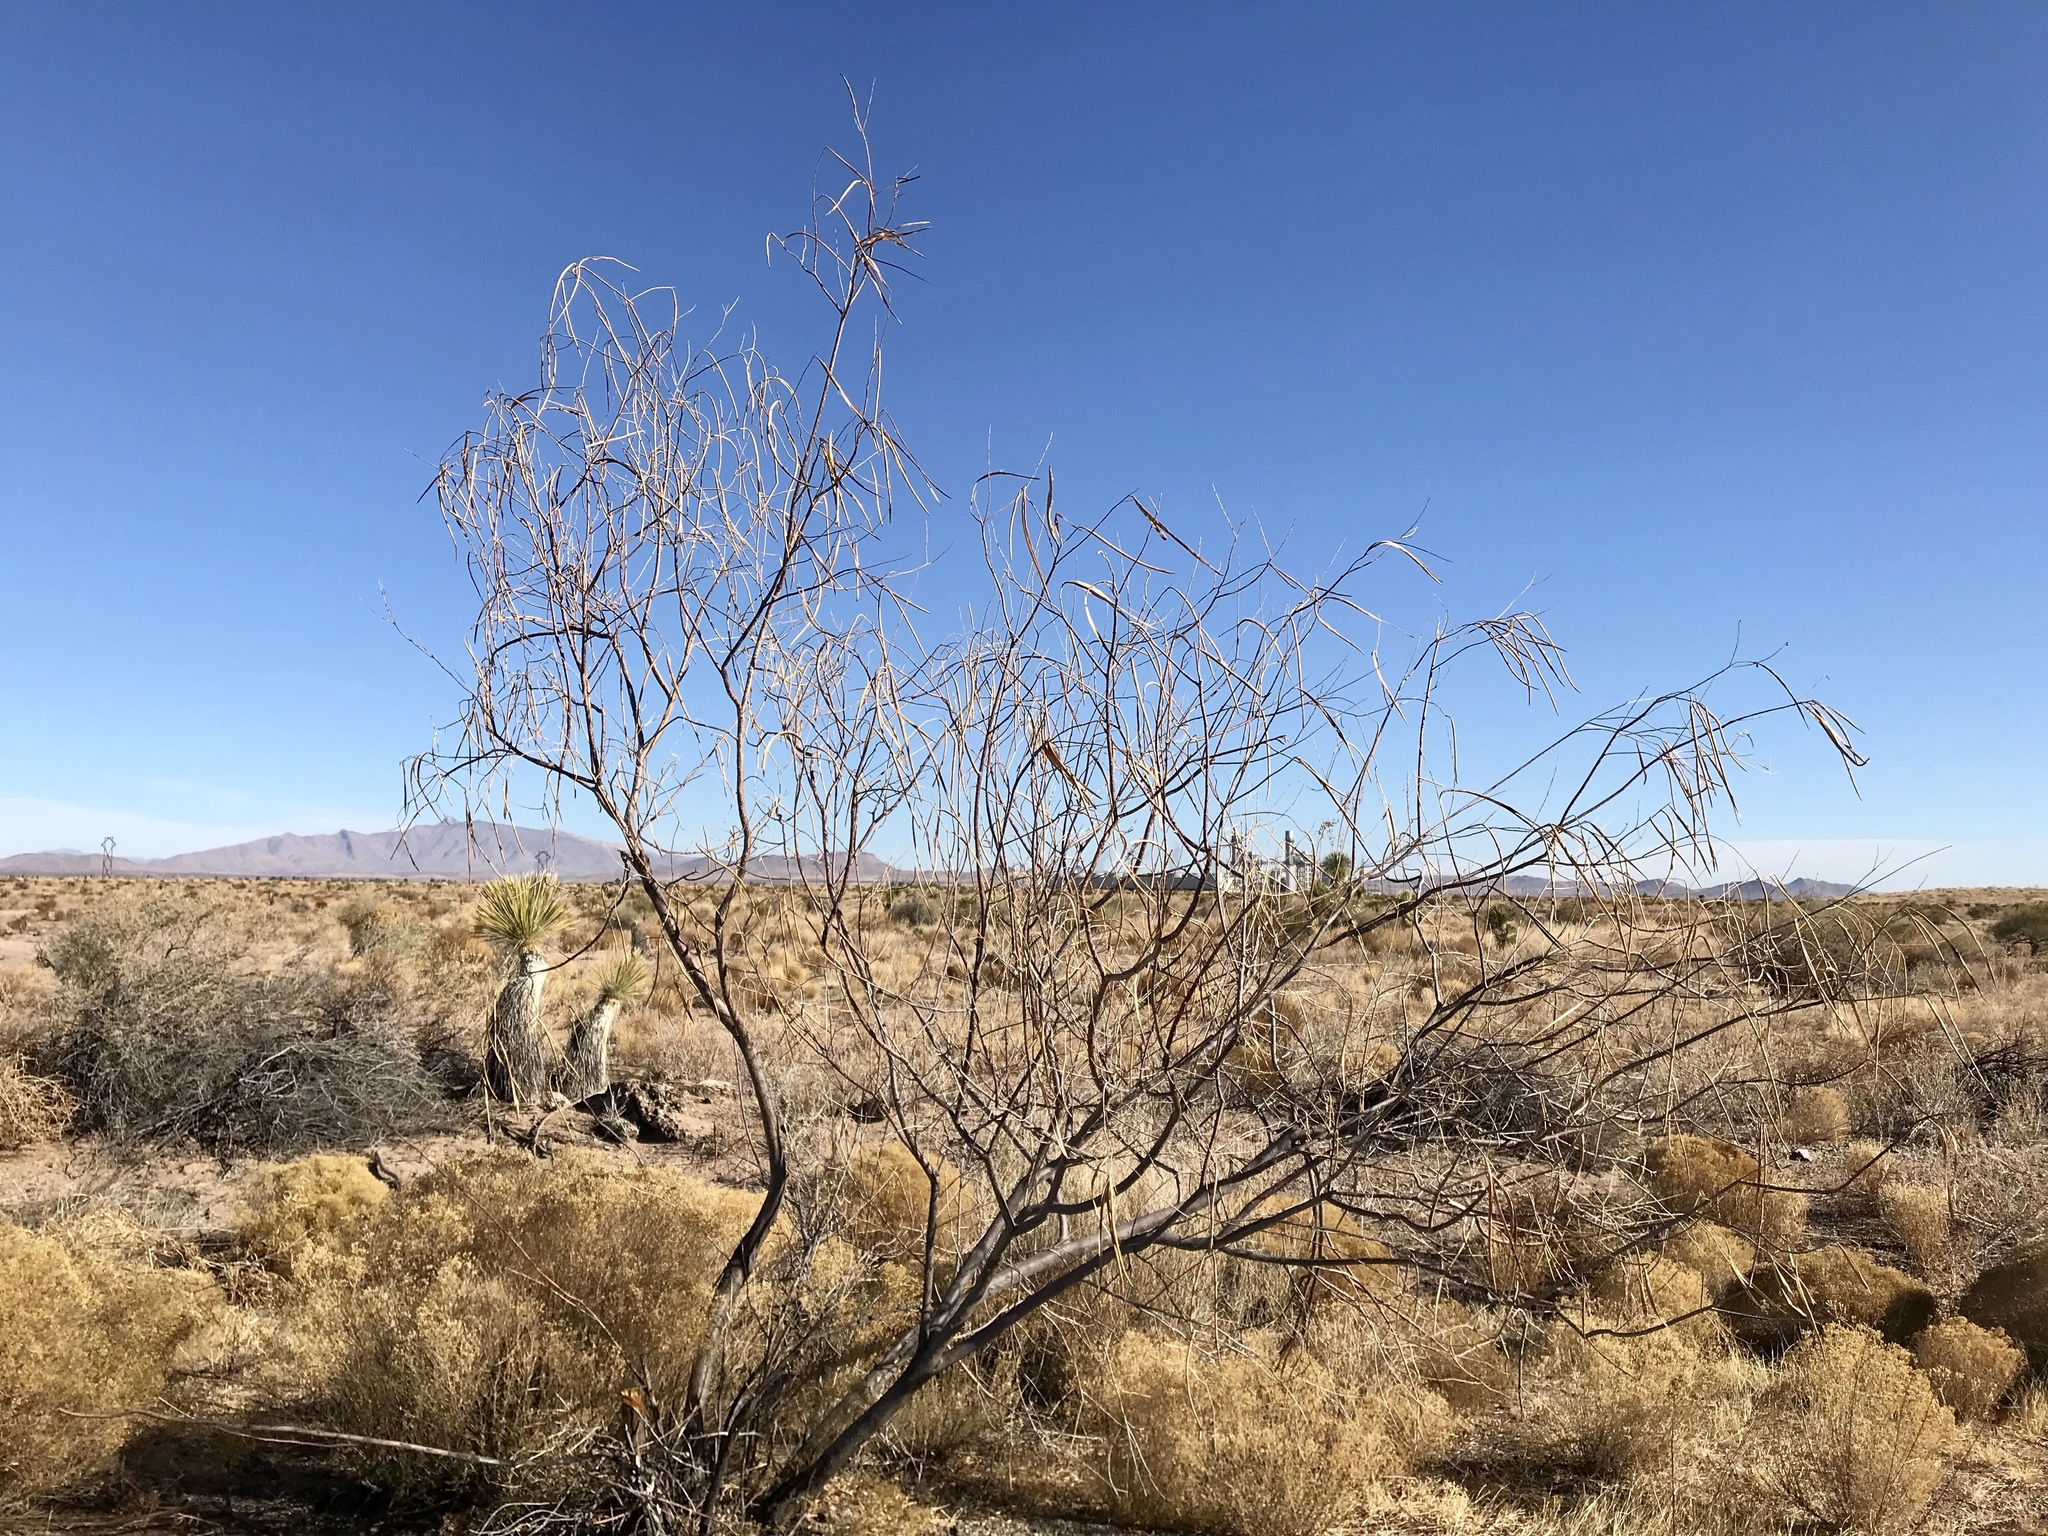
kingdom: Plantae
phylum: Tracheophyta
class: Magnoliopsida
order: Lamiales
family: Bignoniaceae
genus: Chilopsis
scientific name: Chilopsis linearis
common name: Desert-willow
